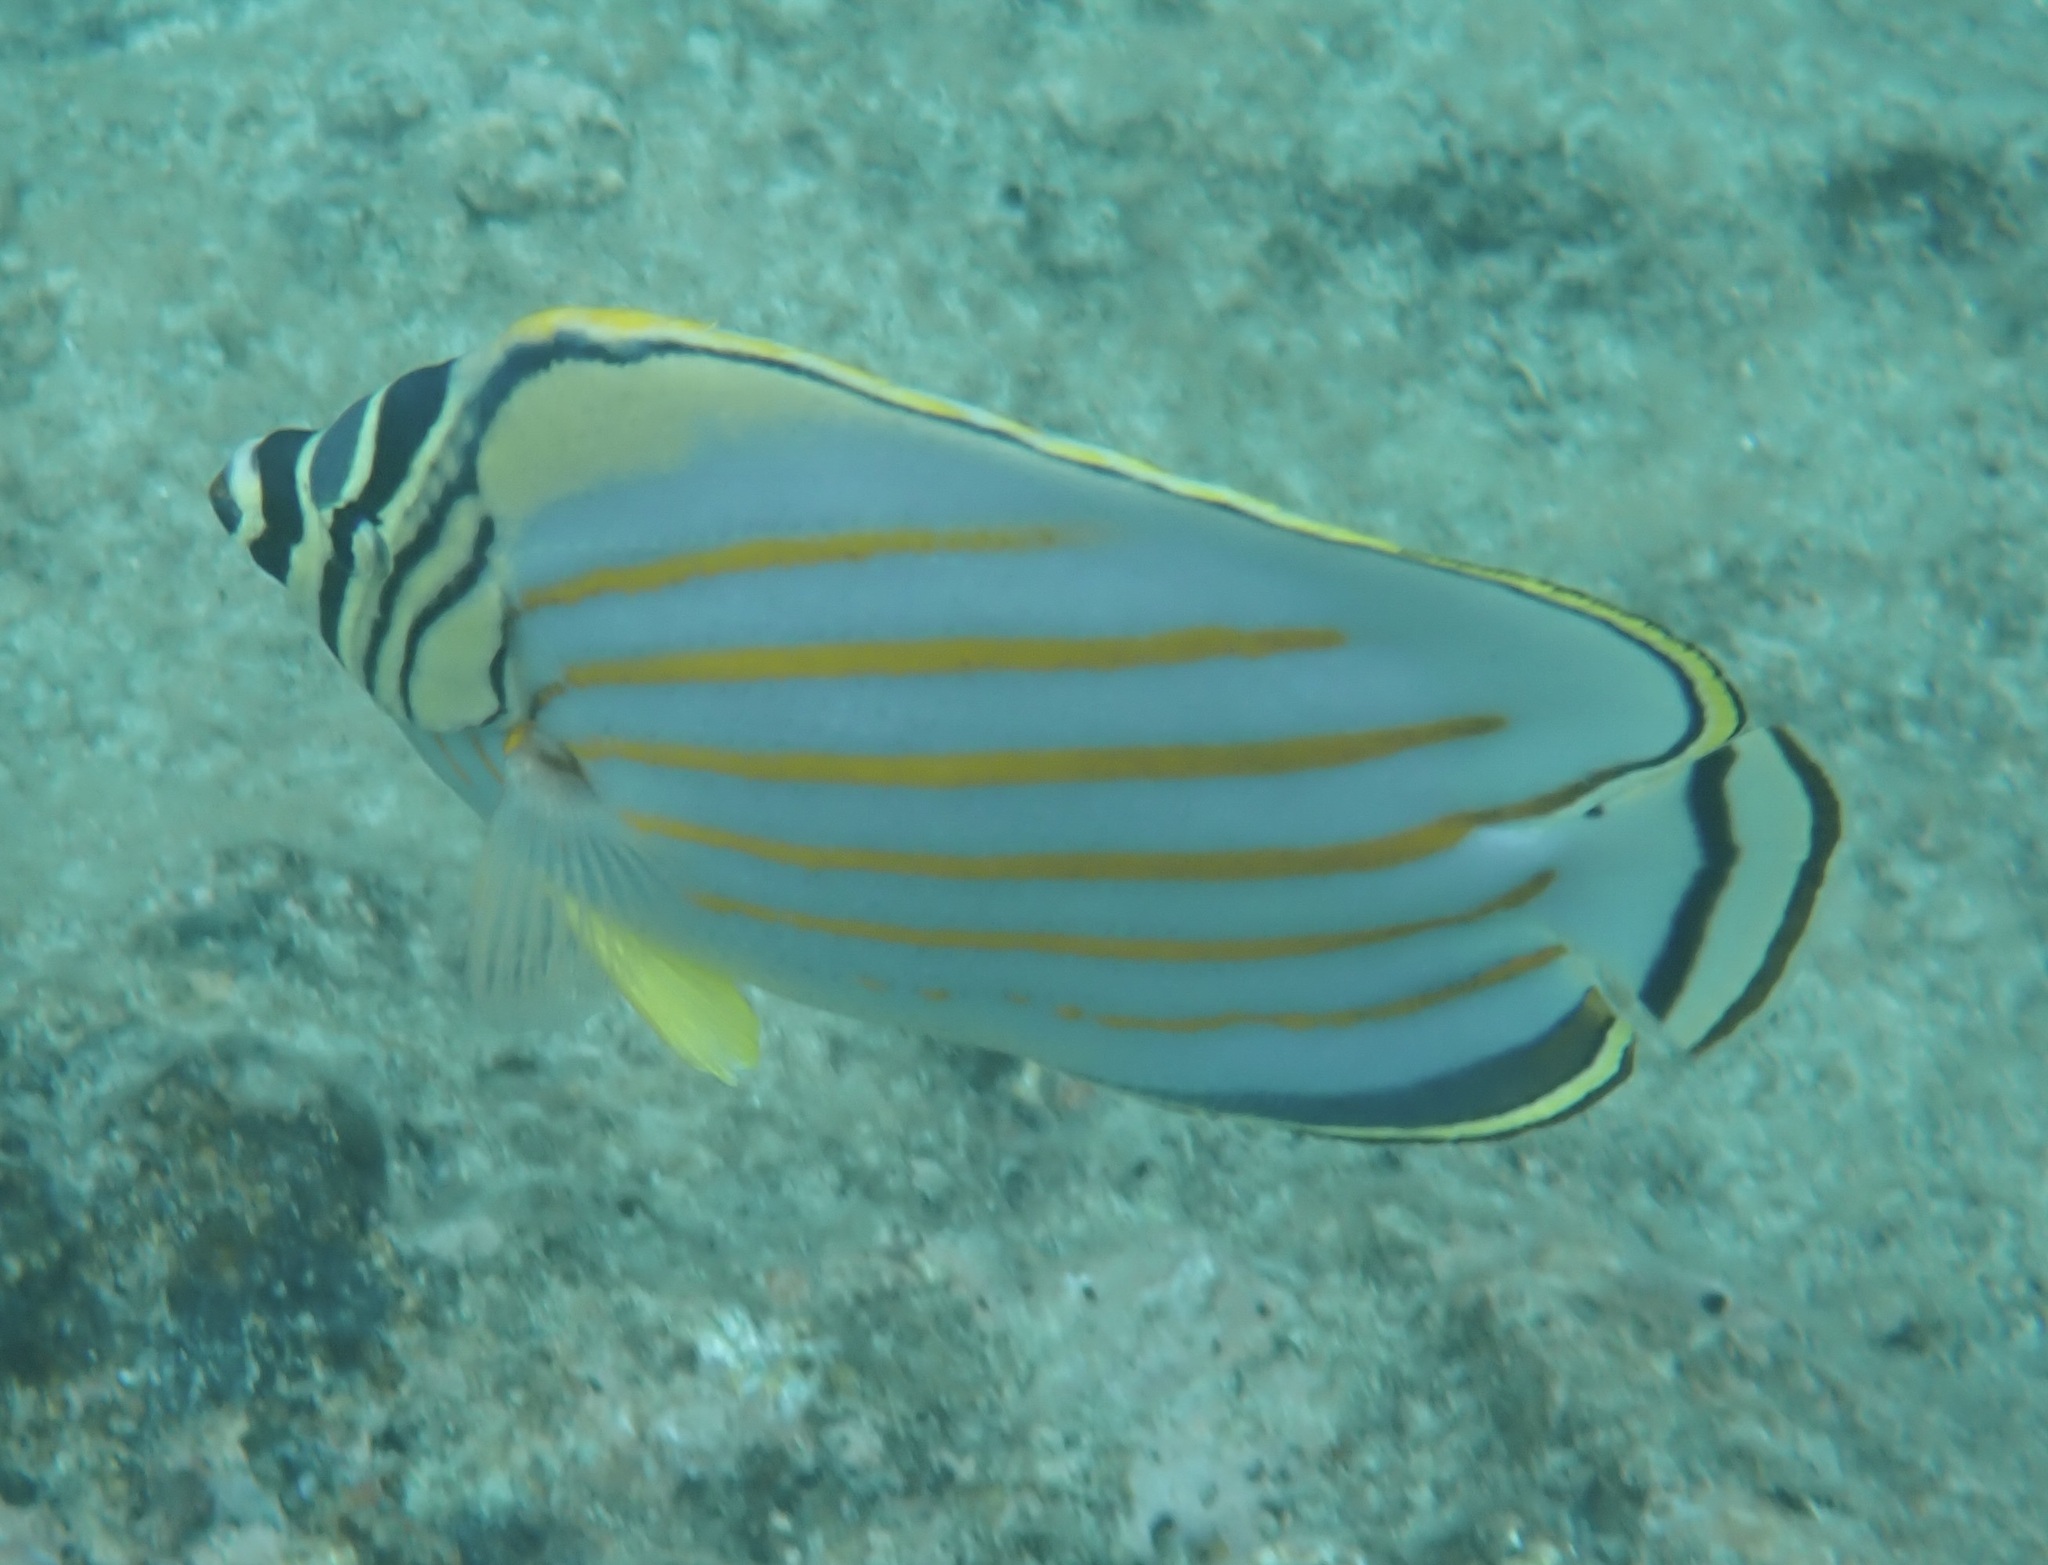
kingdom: Animalia
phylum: Chordata
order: Perciformes
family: Chaetodontidae
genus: Chaetodon
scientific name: Chaetodon ornatissimus
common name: Ornate butterflyfish
